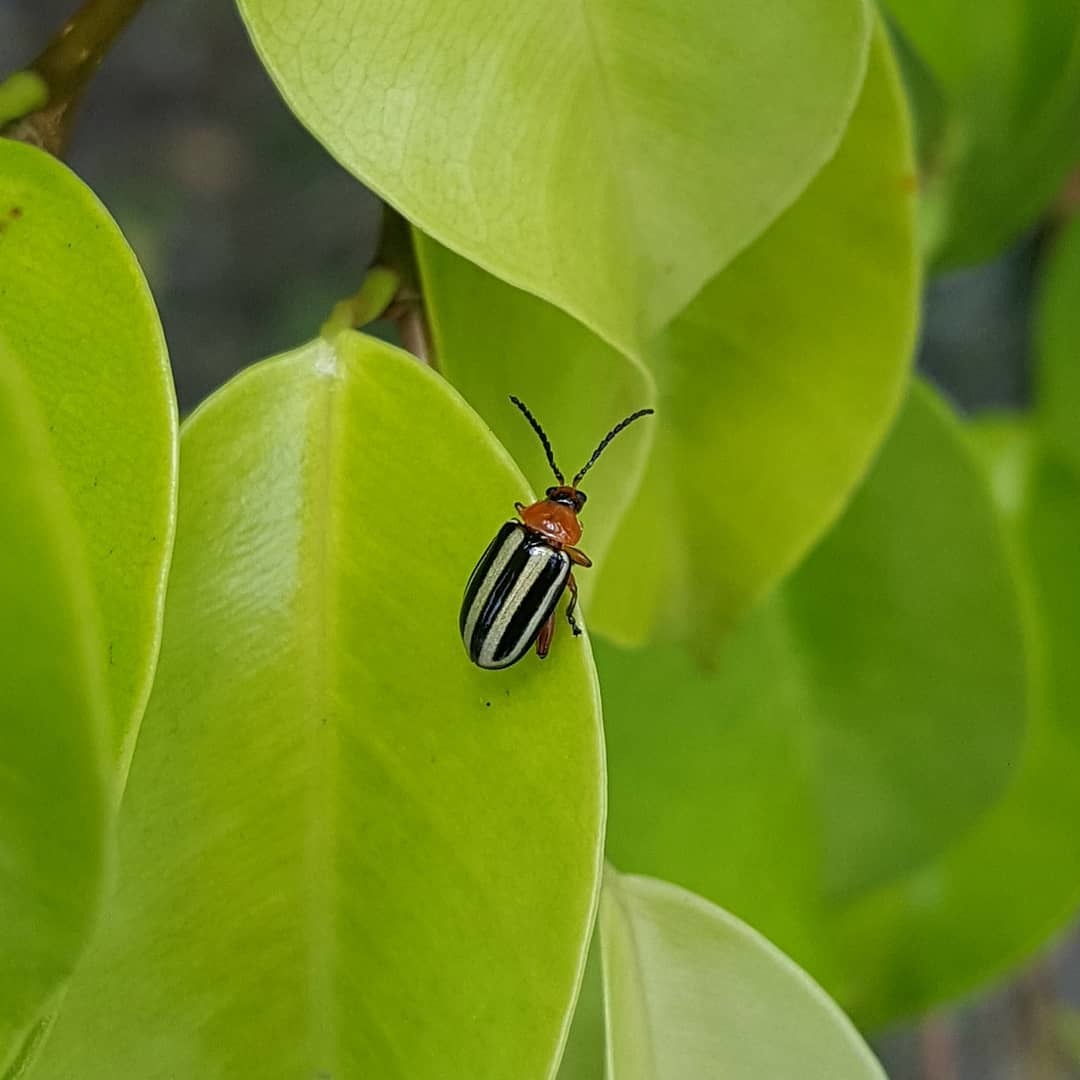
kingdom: Animalia
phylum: Arthropoda
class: Insecta
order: Coleoptera
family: Chrysomelidae
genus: Disonycha
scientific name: Disonycha glabrata
